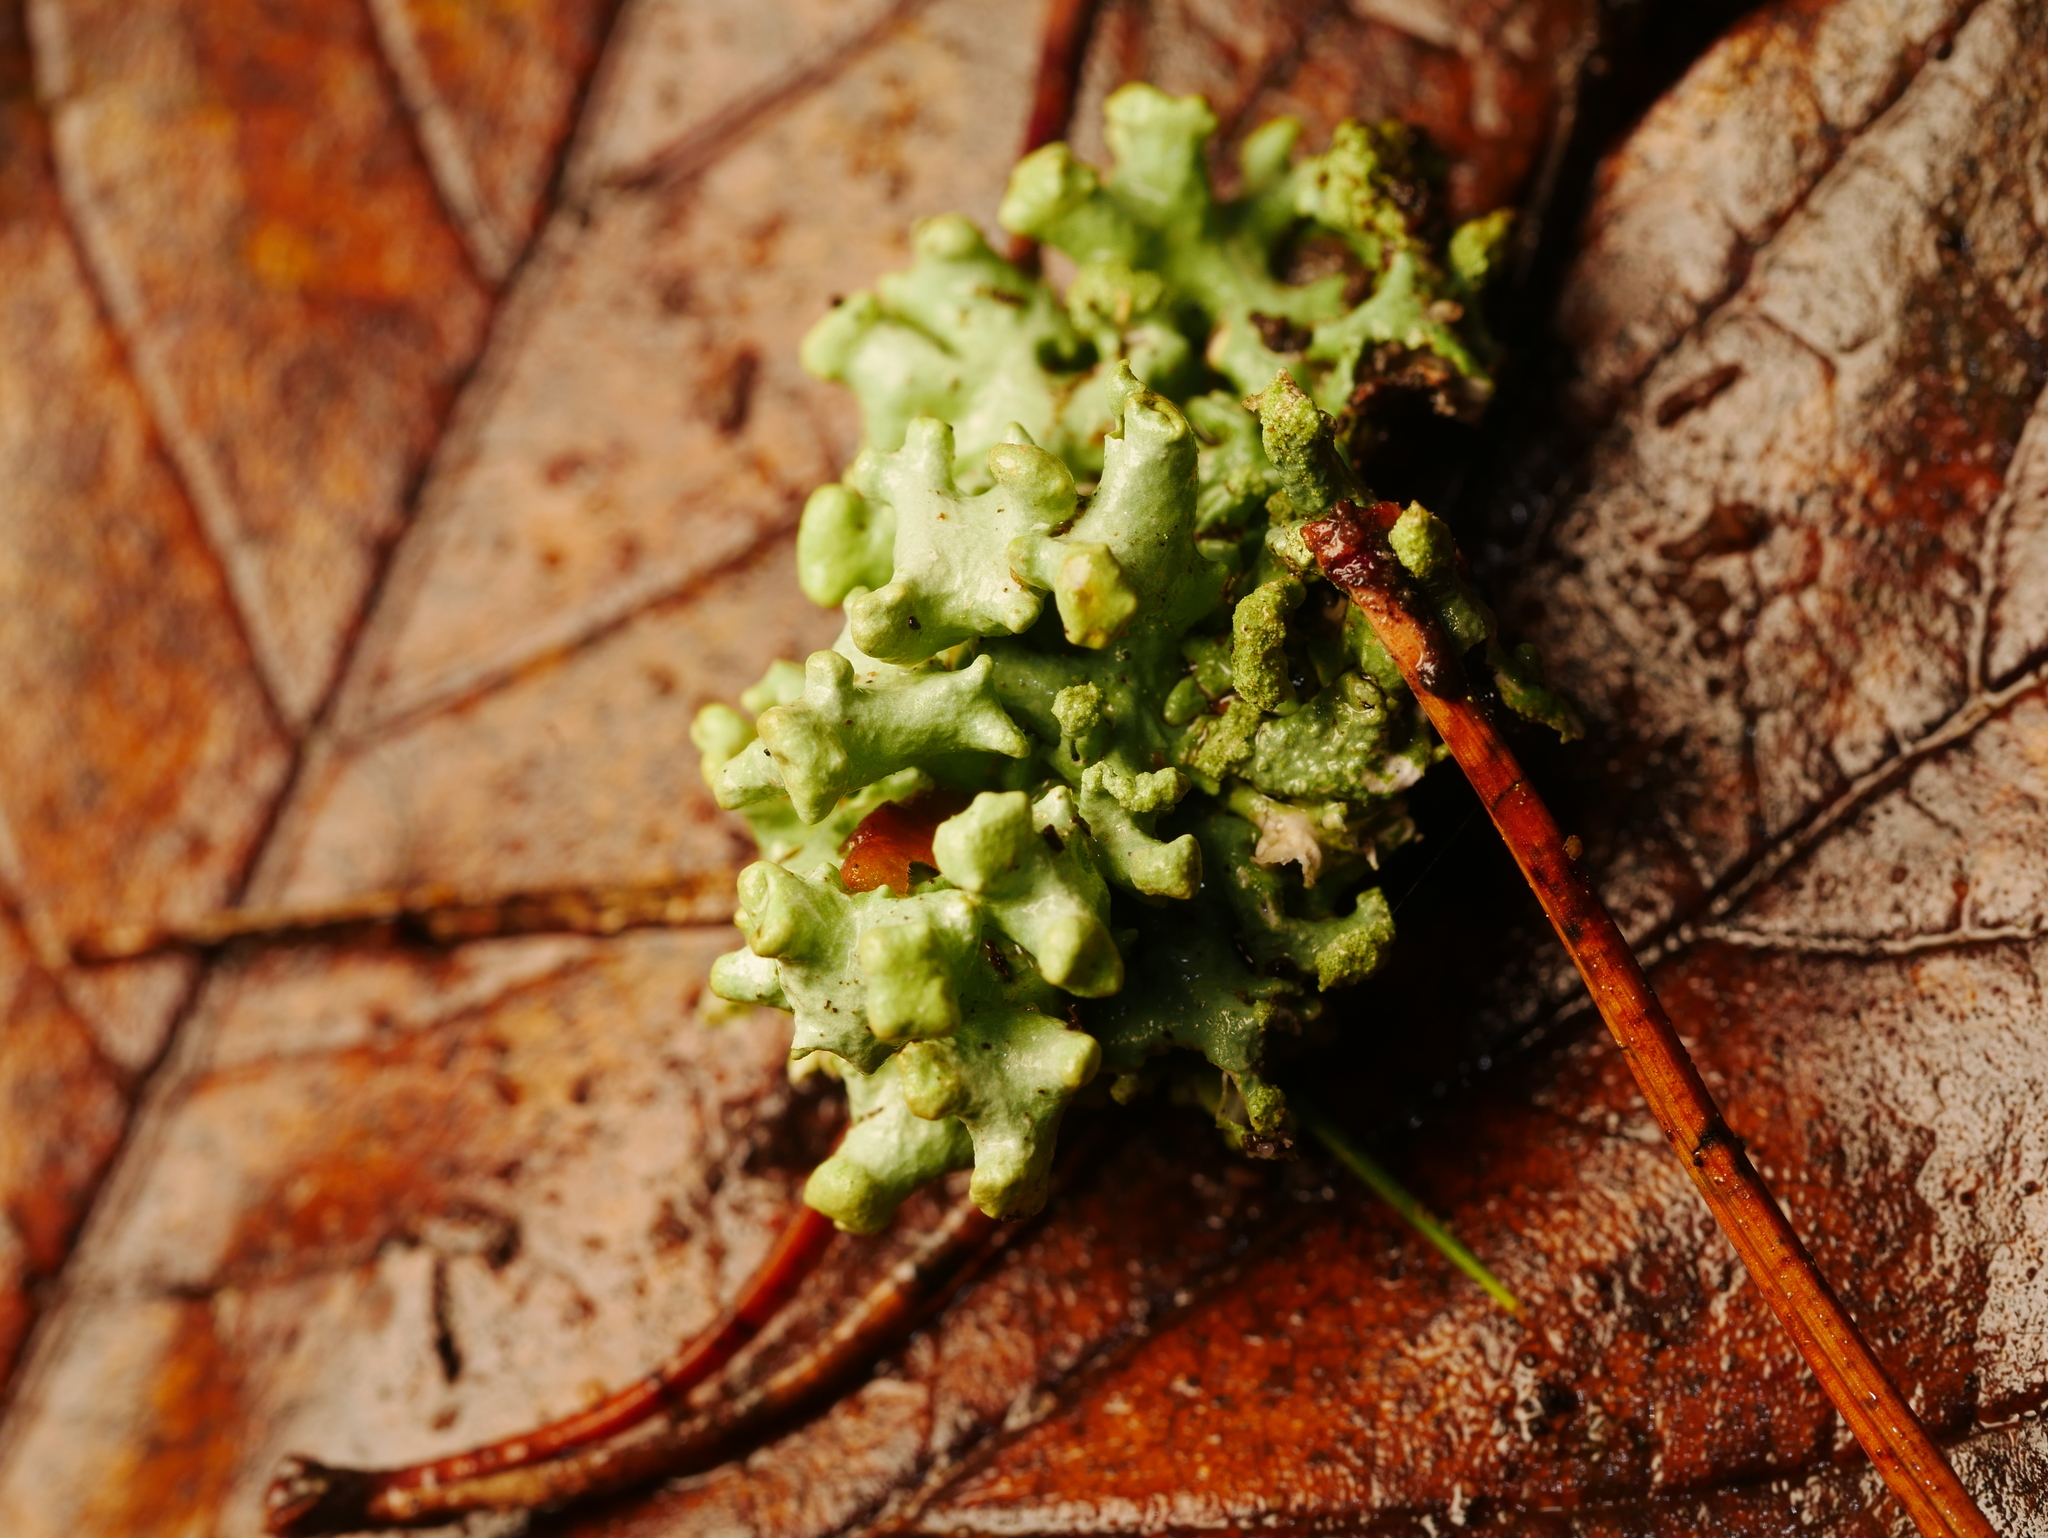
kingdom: Fungi
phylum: Ascomycota
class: Lecanoromycetes
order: Lecanorales
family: Parmeliaceae
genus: Hypogymnia
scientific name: Hypogymnia physodes
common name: Dark crottle
